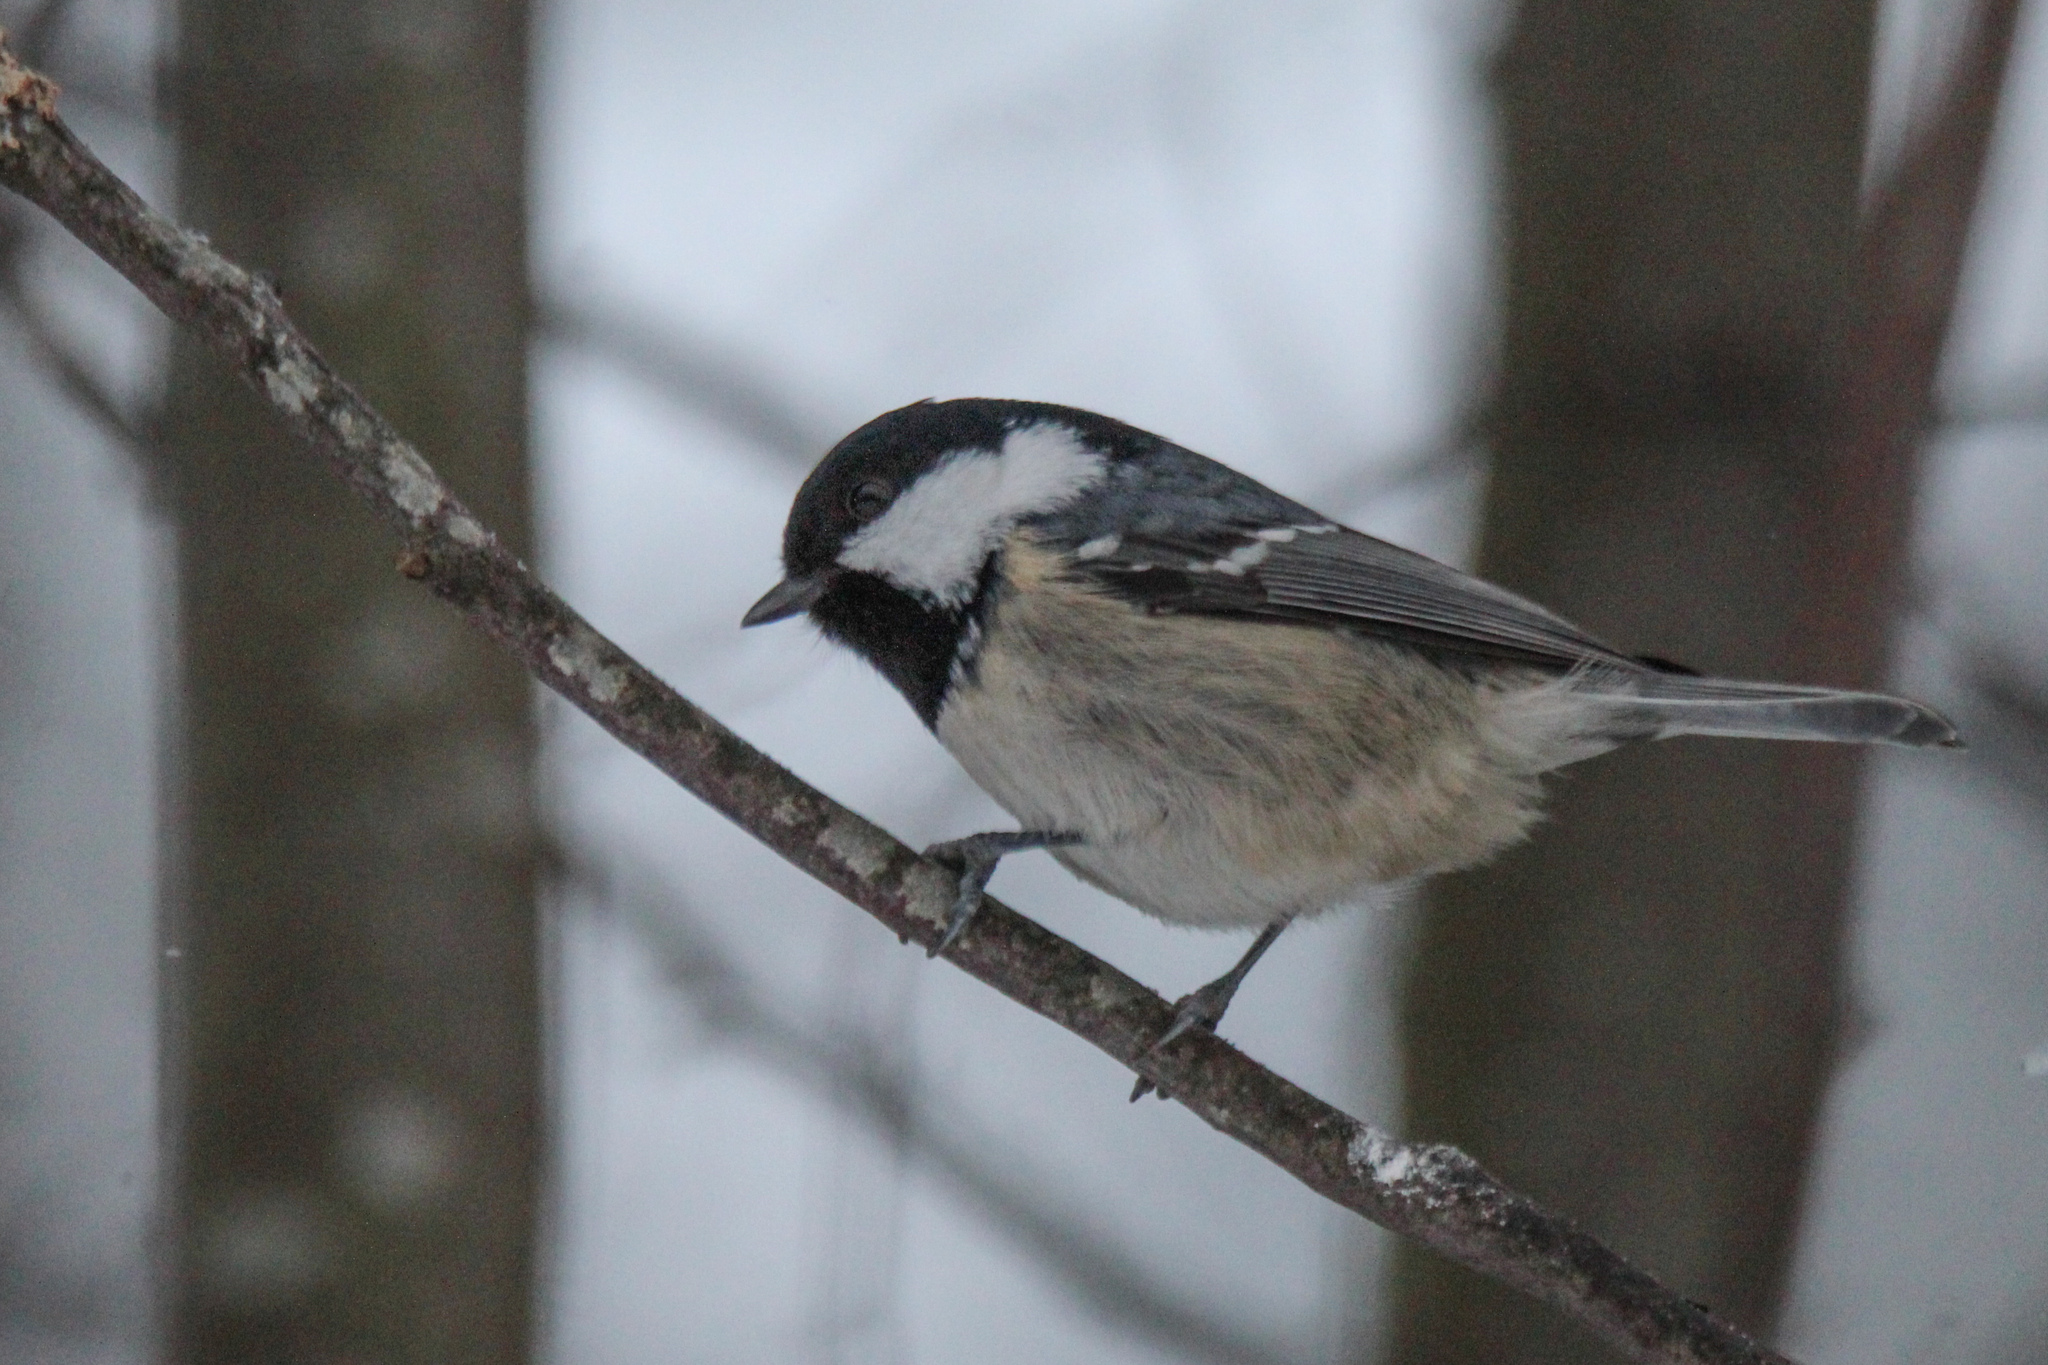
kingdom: Animalia
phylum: Chordata
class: Aves
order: Passeriformes
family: Paridae
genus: Periparus
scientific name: Periparus ater
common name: Coal tit
